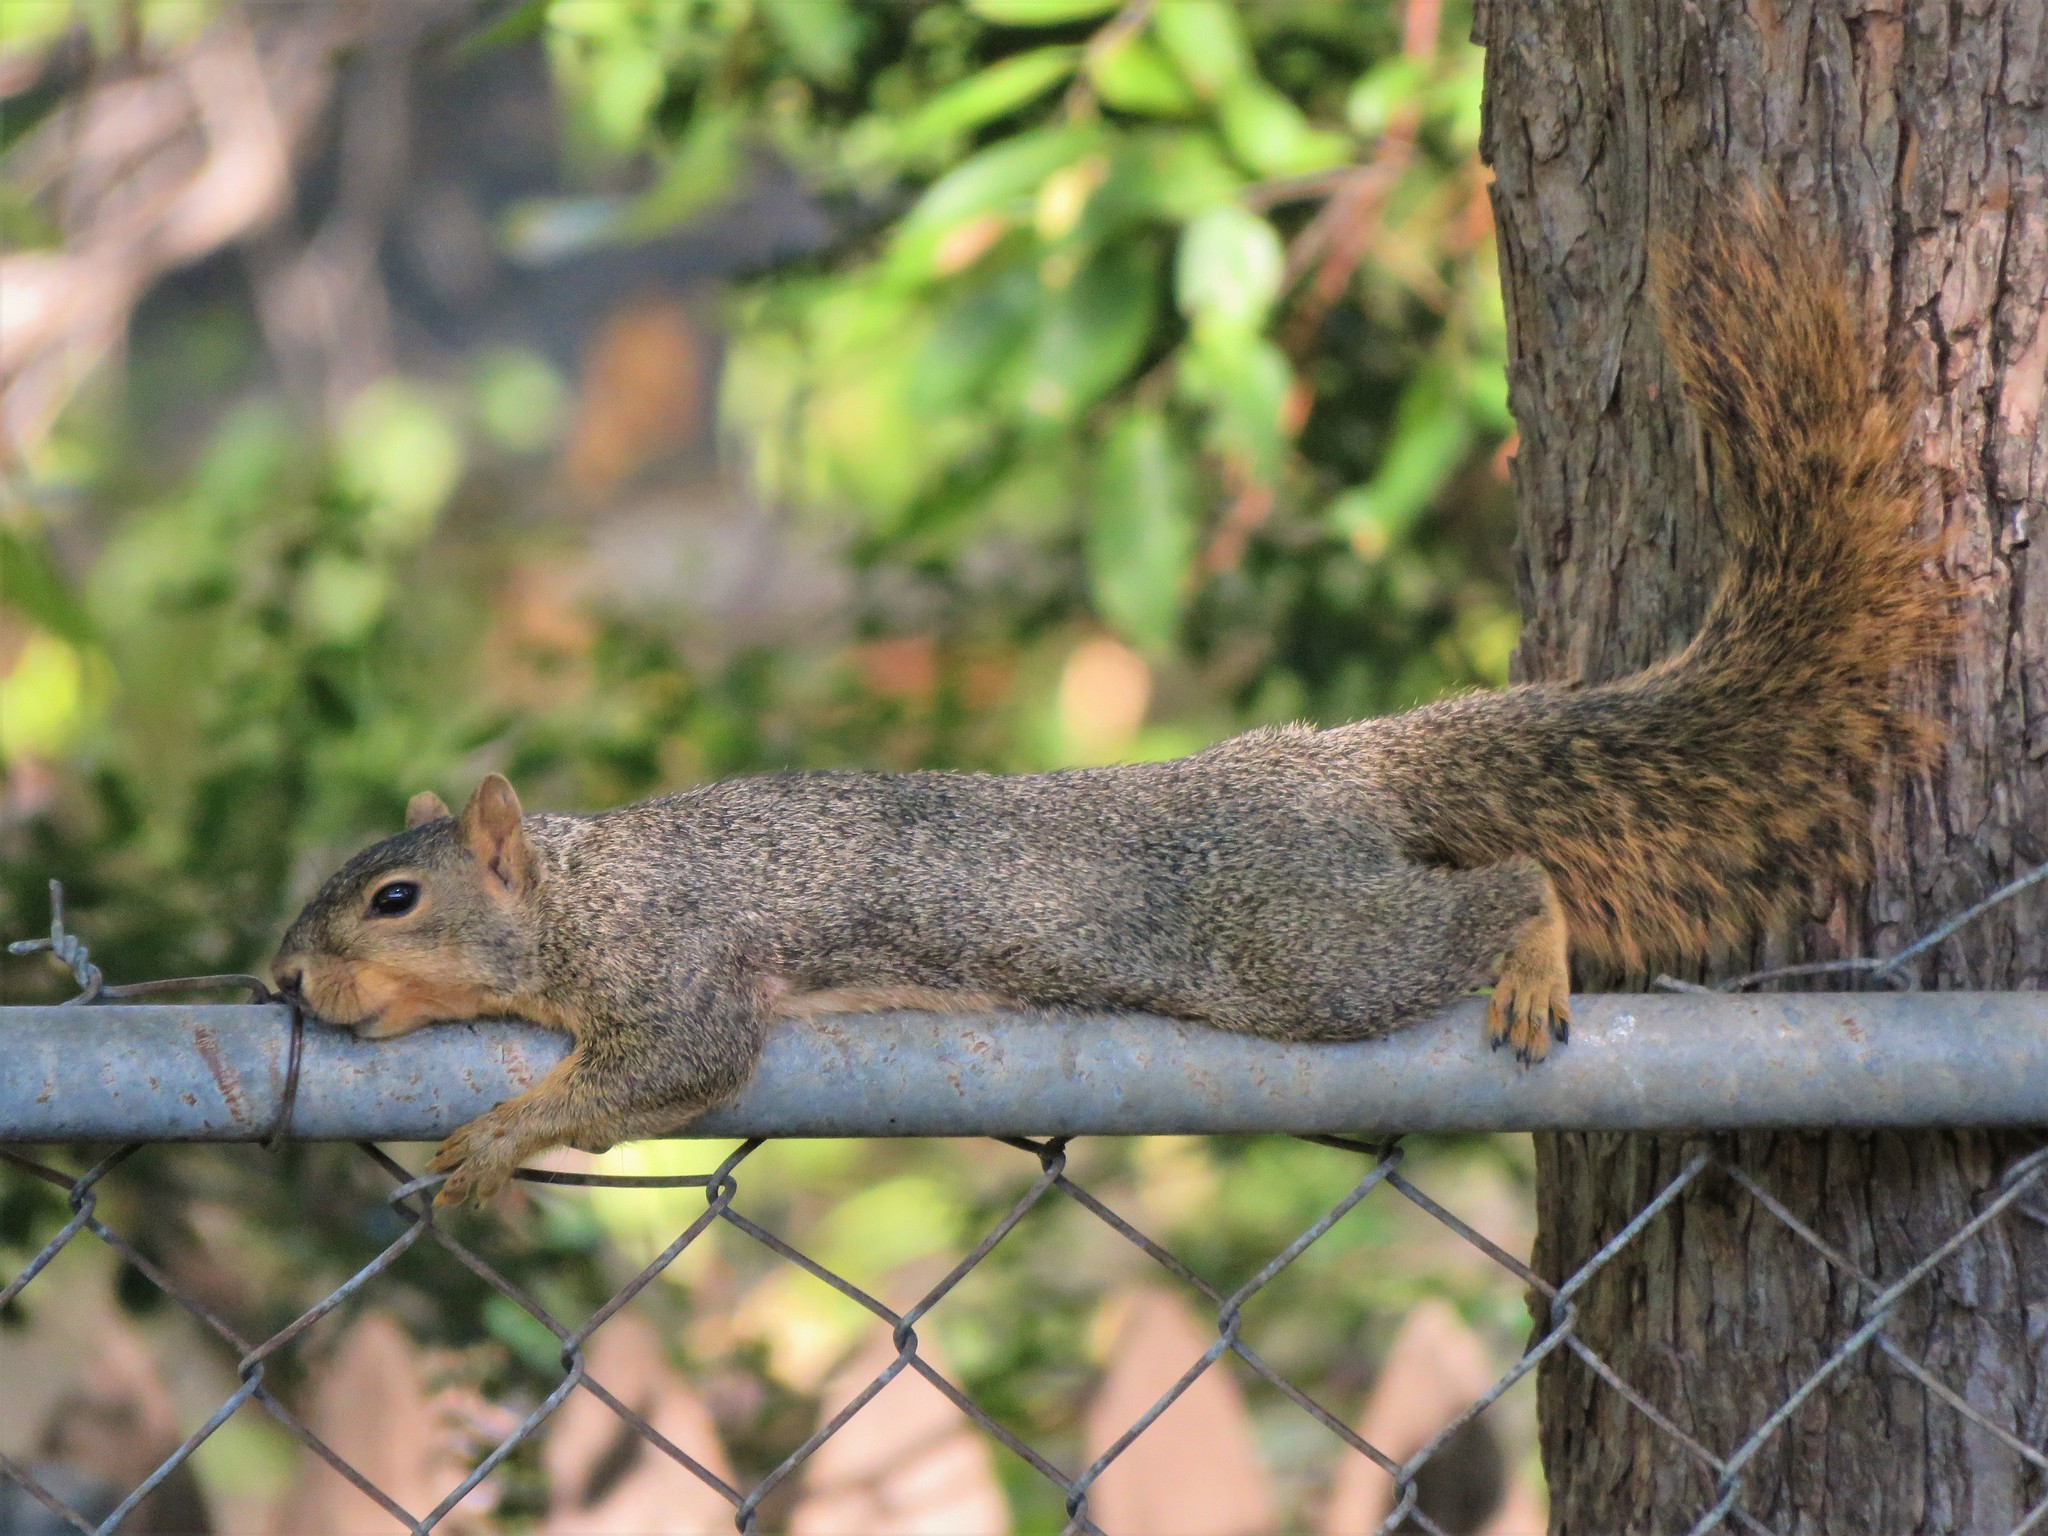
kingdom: Animalia
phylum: Chordata
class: Mammalia
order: Rodentia
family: Sciuridae
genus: Sciurus
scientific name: Sciurus niger
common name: Fox squirrel
